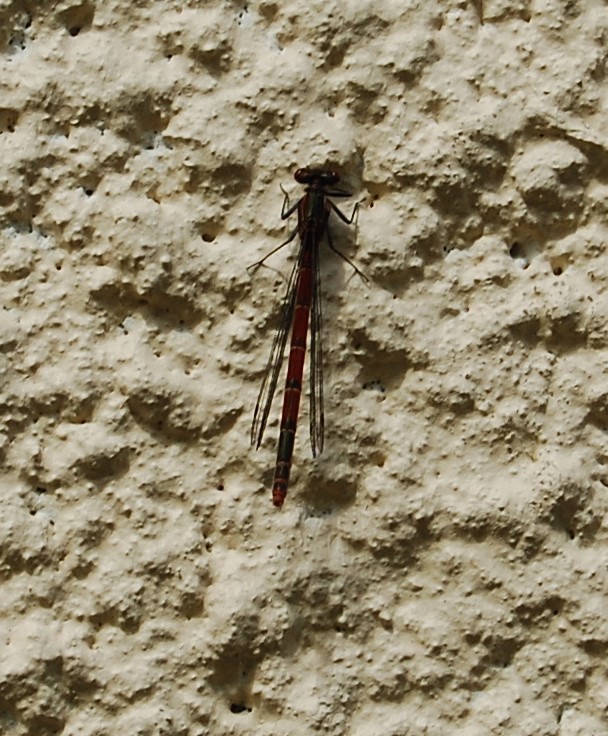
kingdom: Animalia
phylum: Arthropoda
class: Insecta
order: Odonata
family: Coenagrionidae
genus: Pyrrhosoma
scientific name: Pyrrhosoma nymphula
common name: Large red damsel
